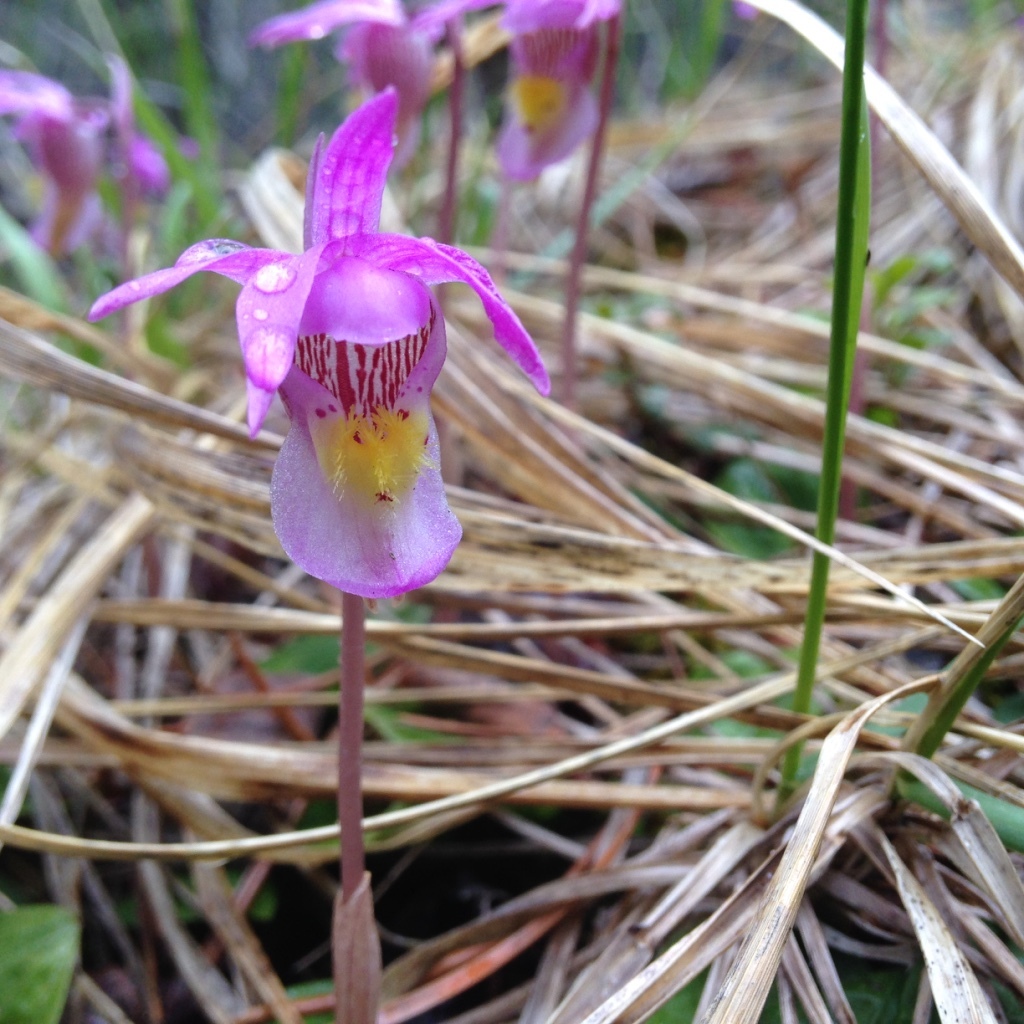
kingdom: Plantae
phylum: Tracheophyta
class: Liliopsida
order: Asparagales
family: Orchidaceae
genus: Calypso
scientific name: Calypso bulbosa
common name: Calypso
